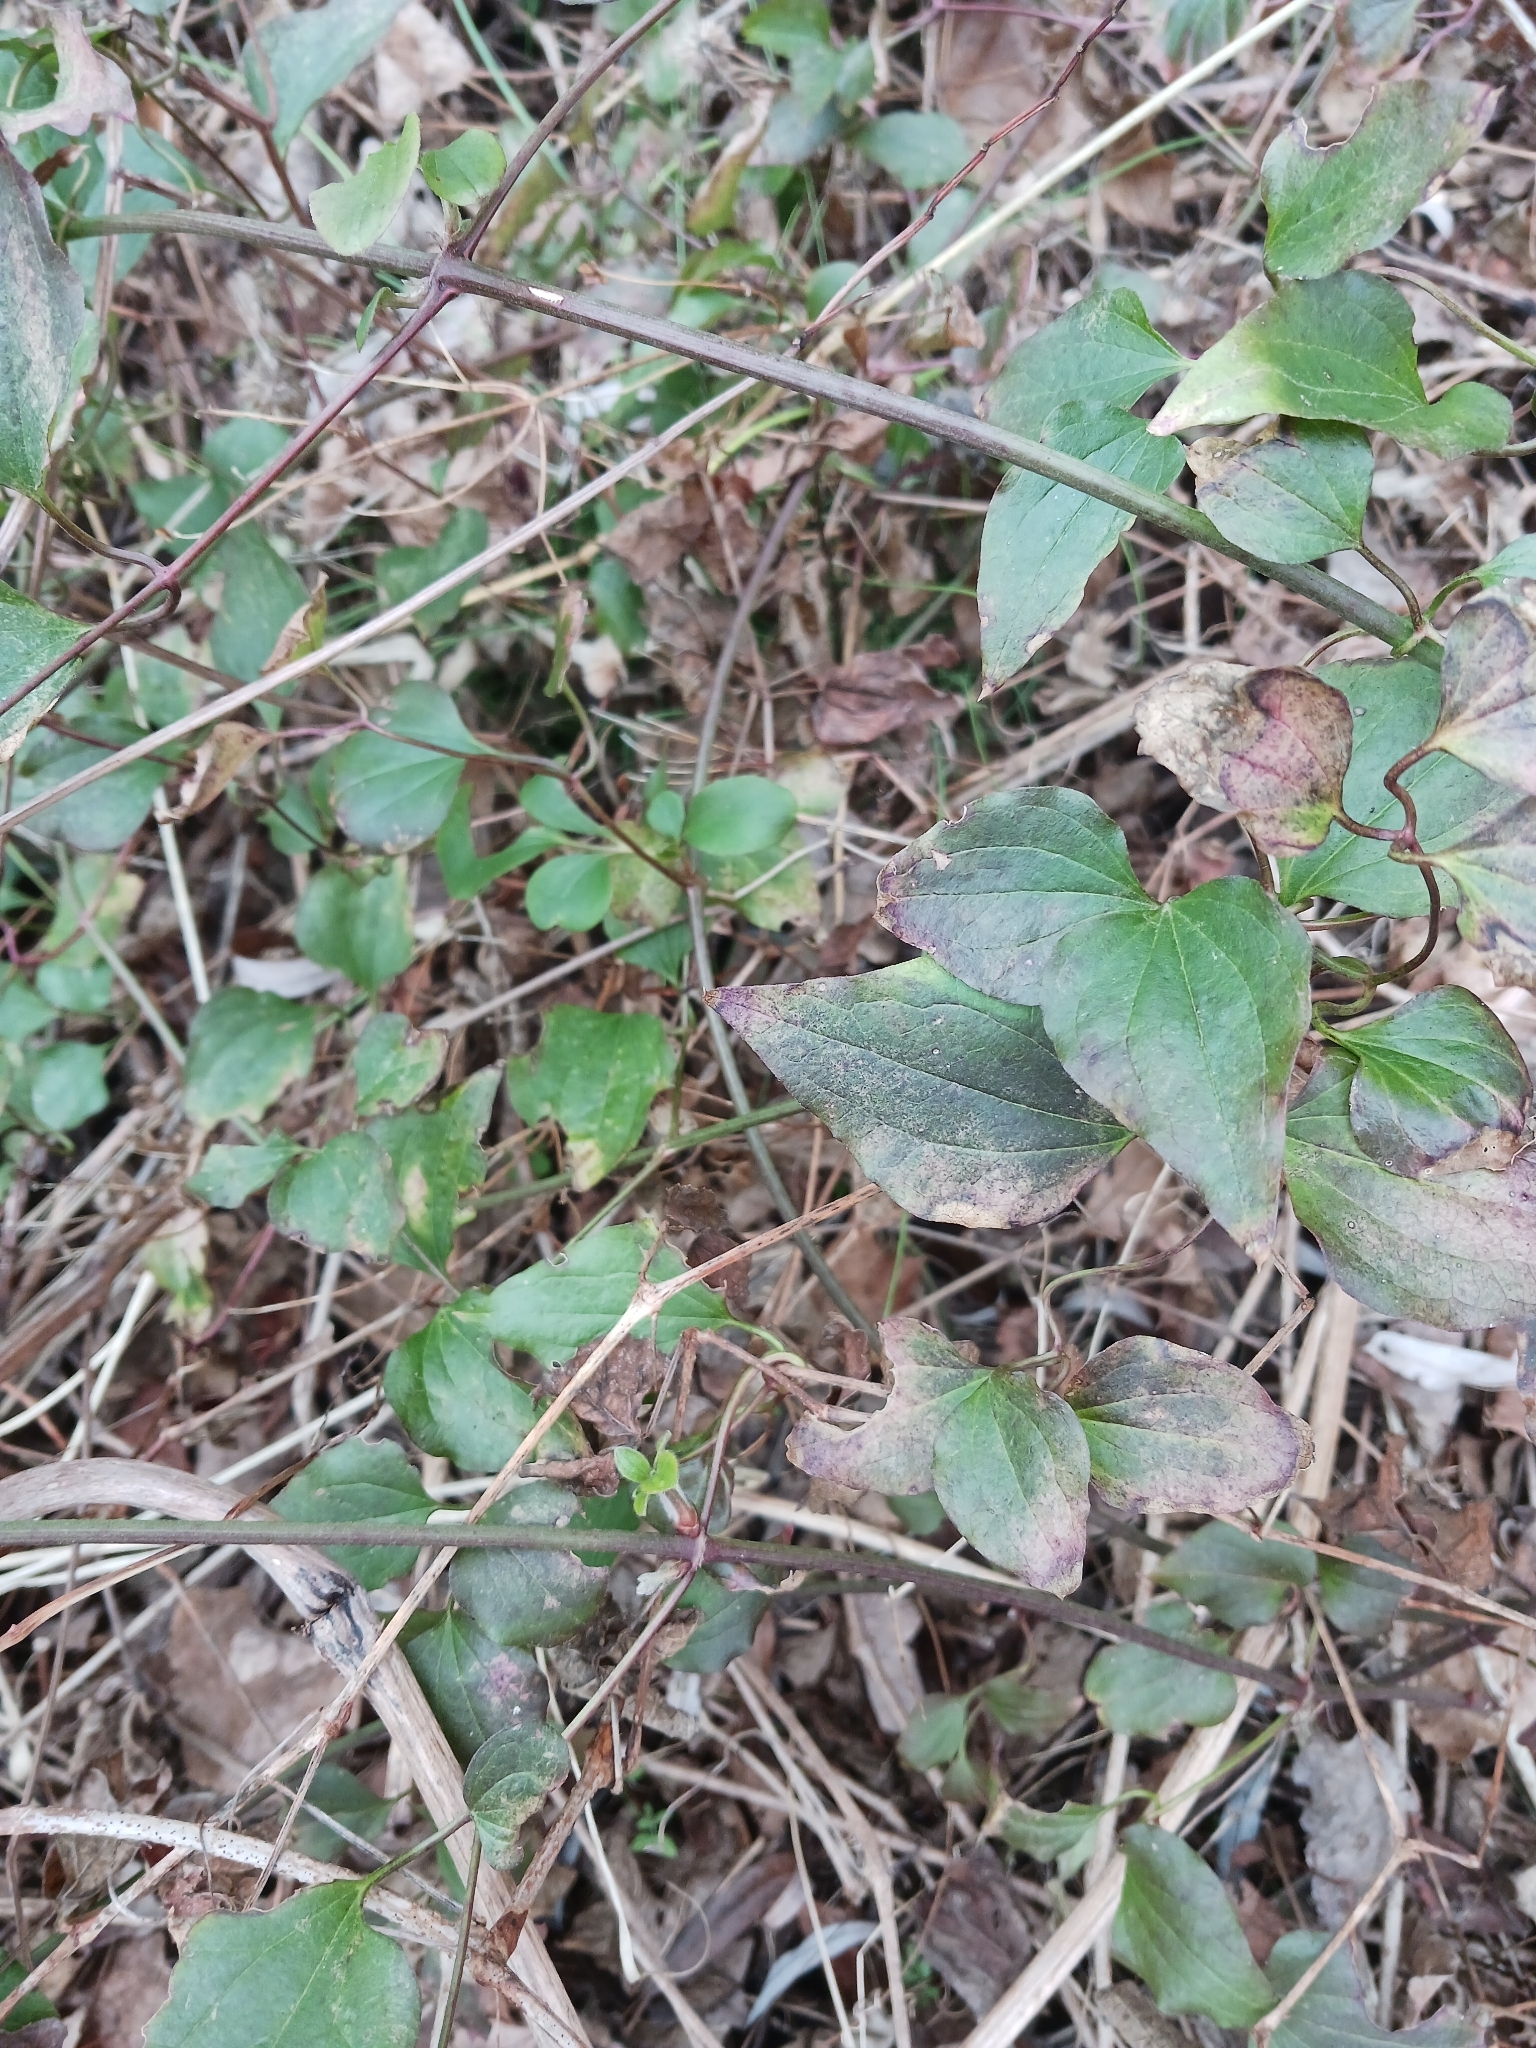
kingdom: Plantae
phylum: Tracheophyta
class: Magnoliopsida
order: Ranunculales
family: Ranunculaceae
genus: Clematis
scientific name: Clematis terniflora
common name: Sweet autumn clematis
